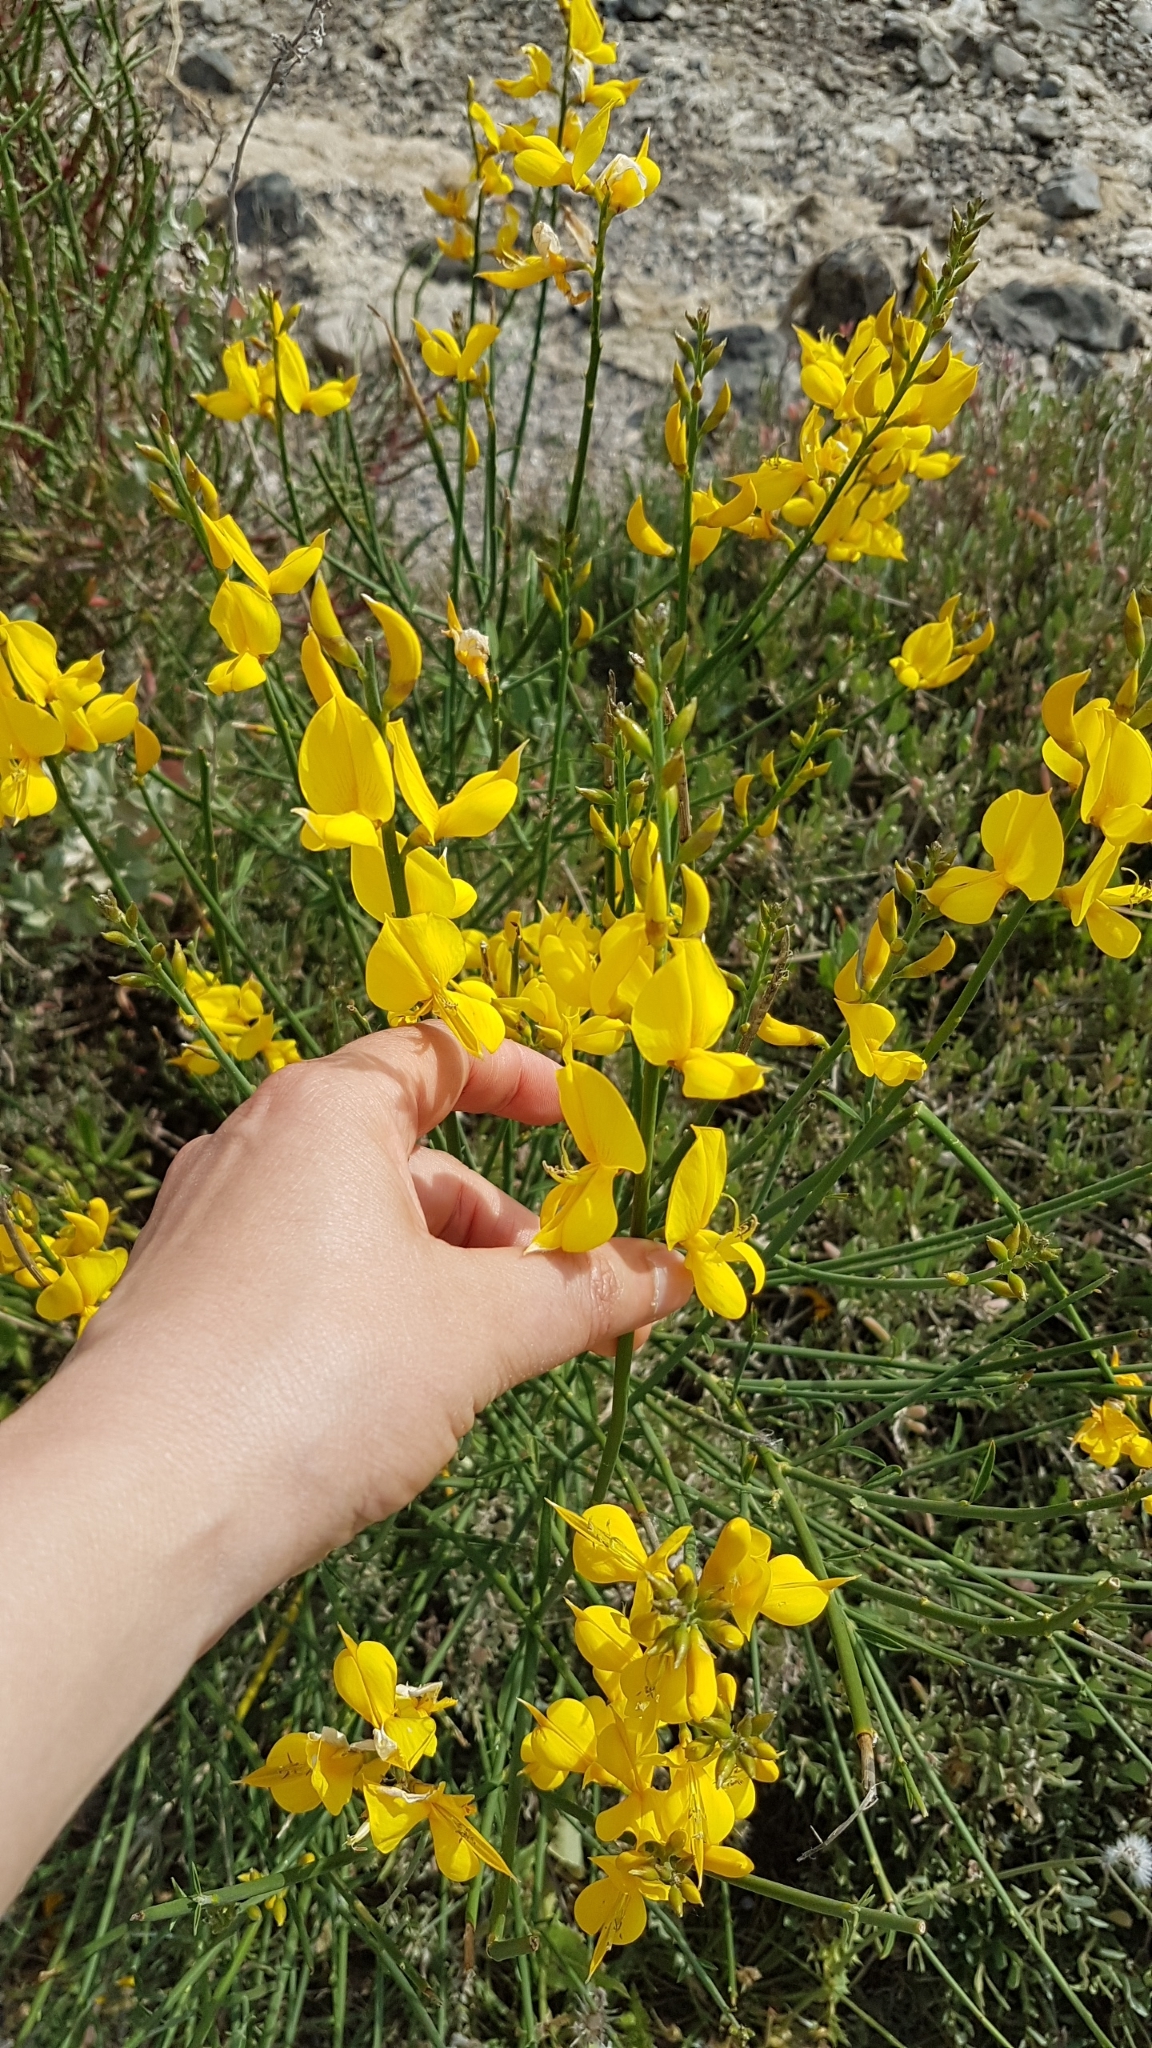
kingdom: Plantae
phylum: Tracheophyta
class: Magnoliopsida
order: Fabales
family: Fabaceae
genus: Spartium
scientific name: Spartium junceum
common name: Spanish broom
